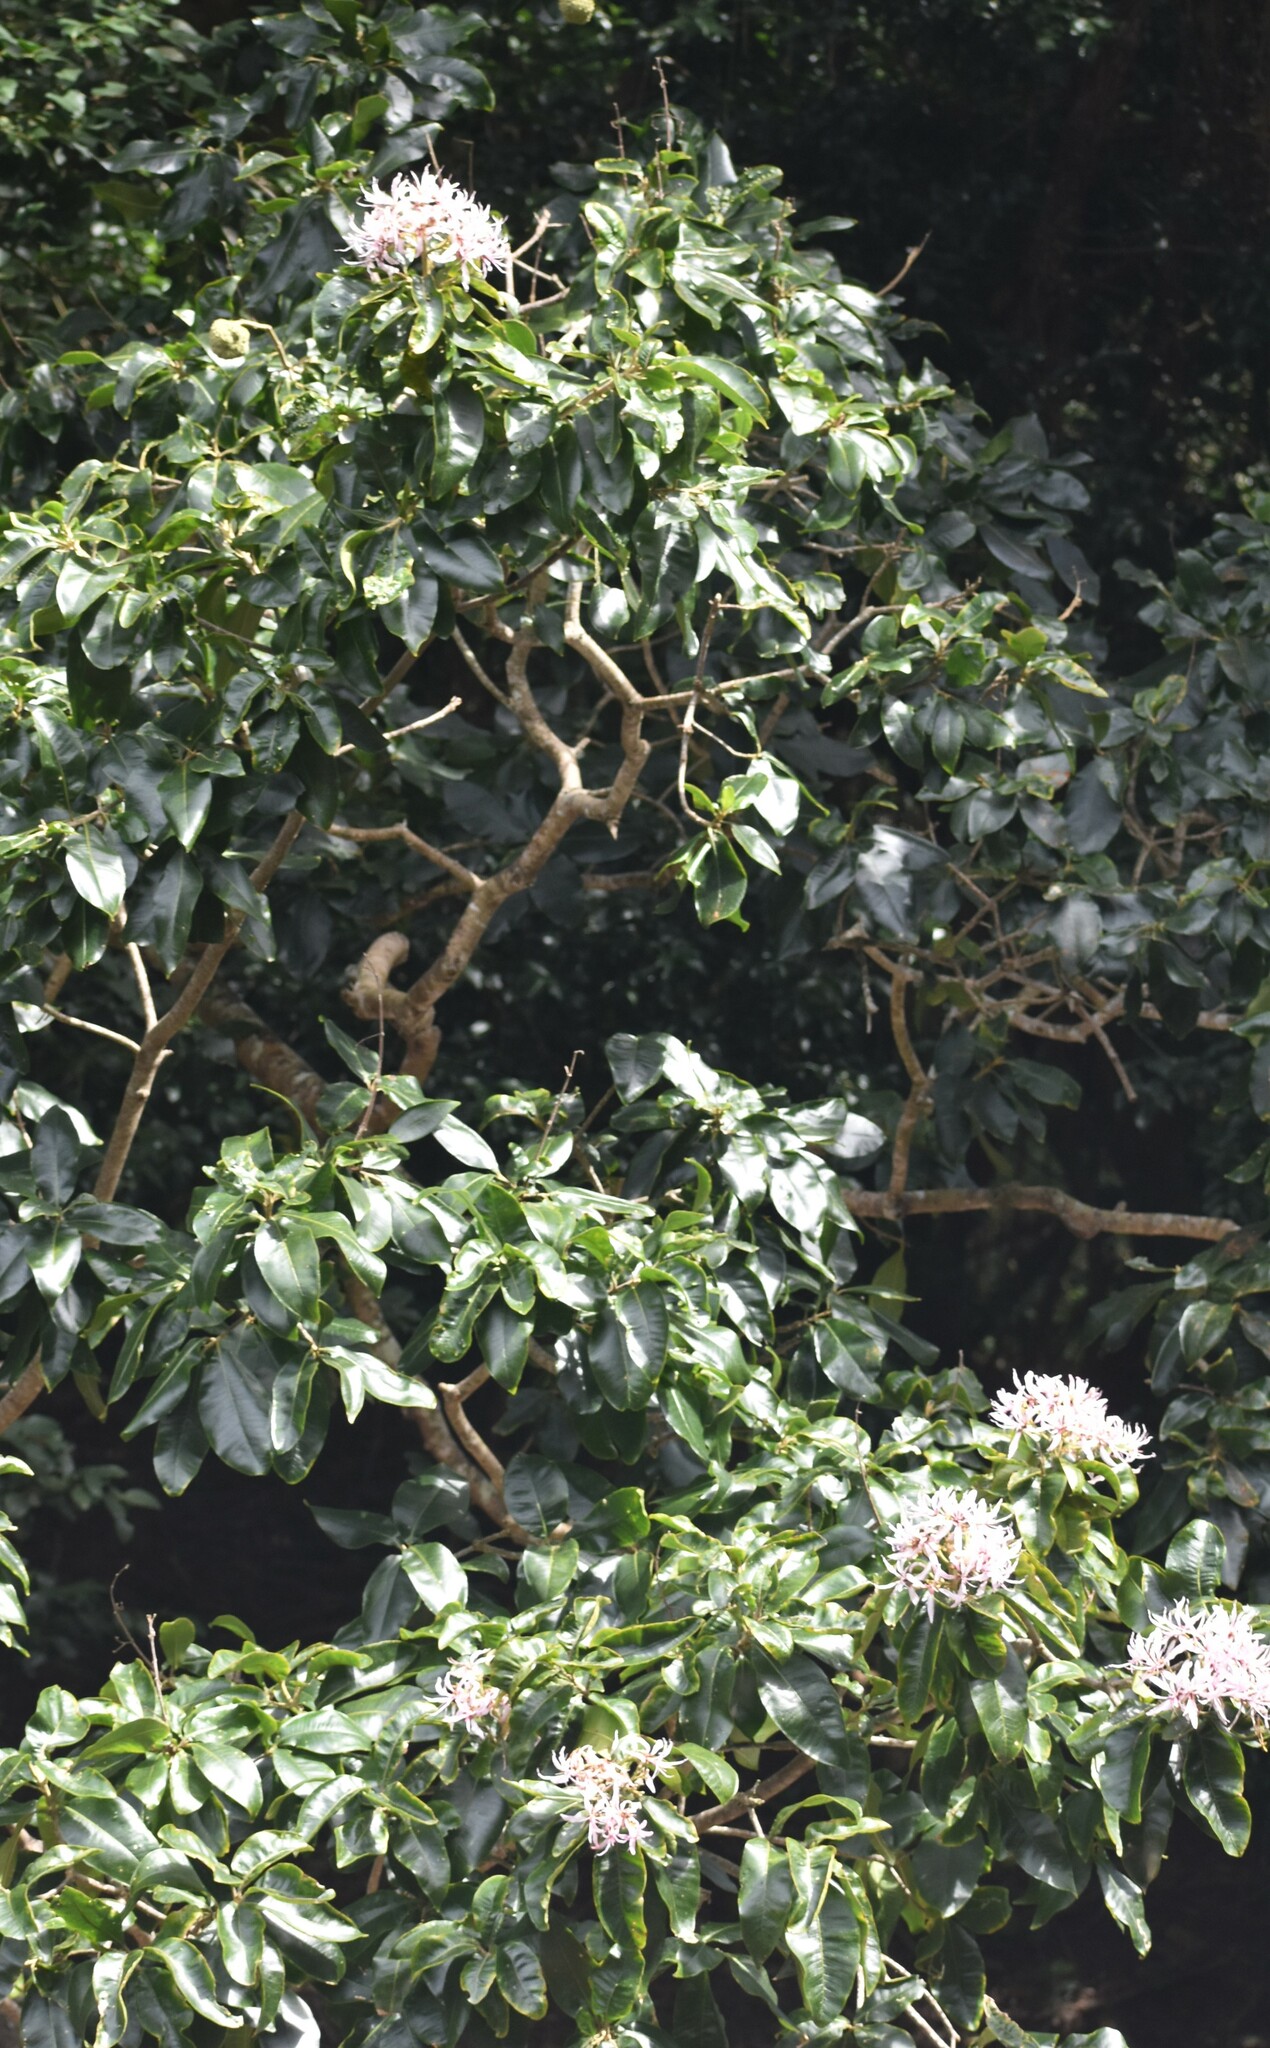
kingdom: Plantae
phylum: Tracheophyta
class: Magnoliopsida
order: Sapindales
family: Rutaceae
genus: Calodendrum
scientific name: Calodendrum capense
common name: Cape chestnut
